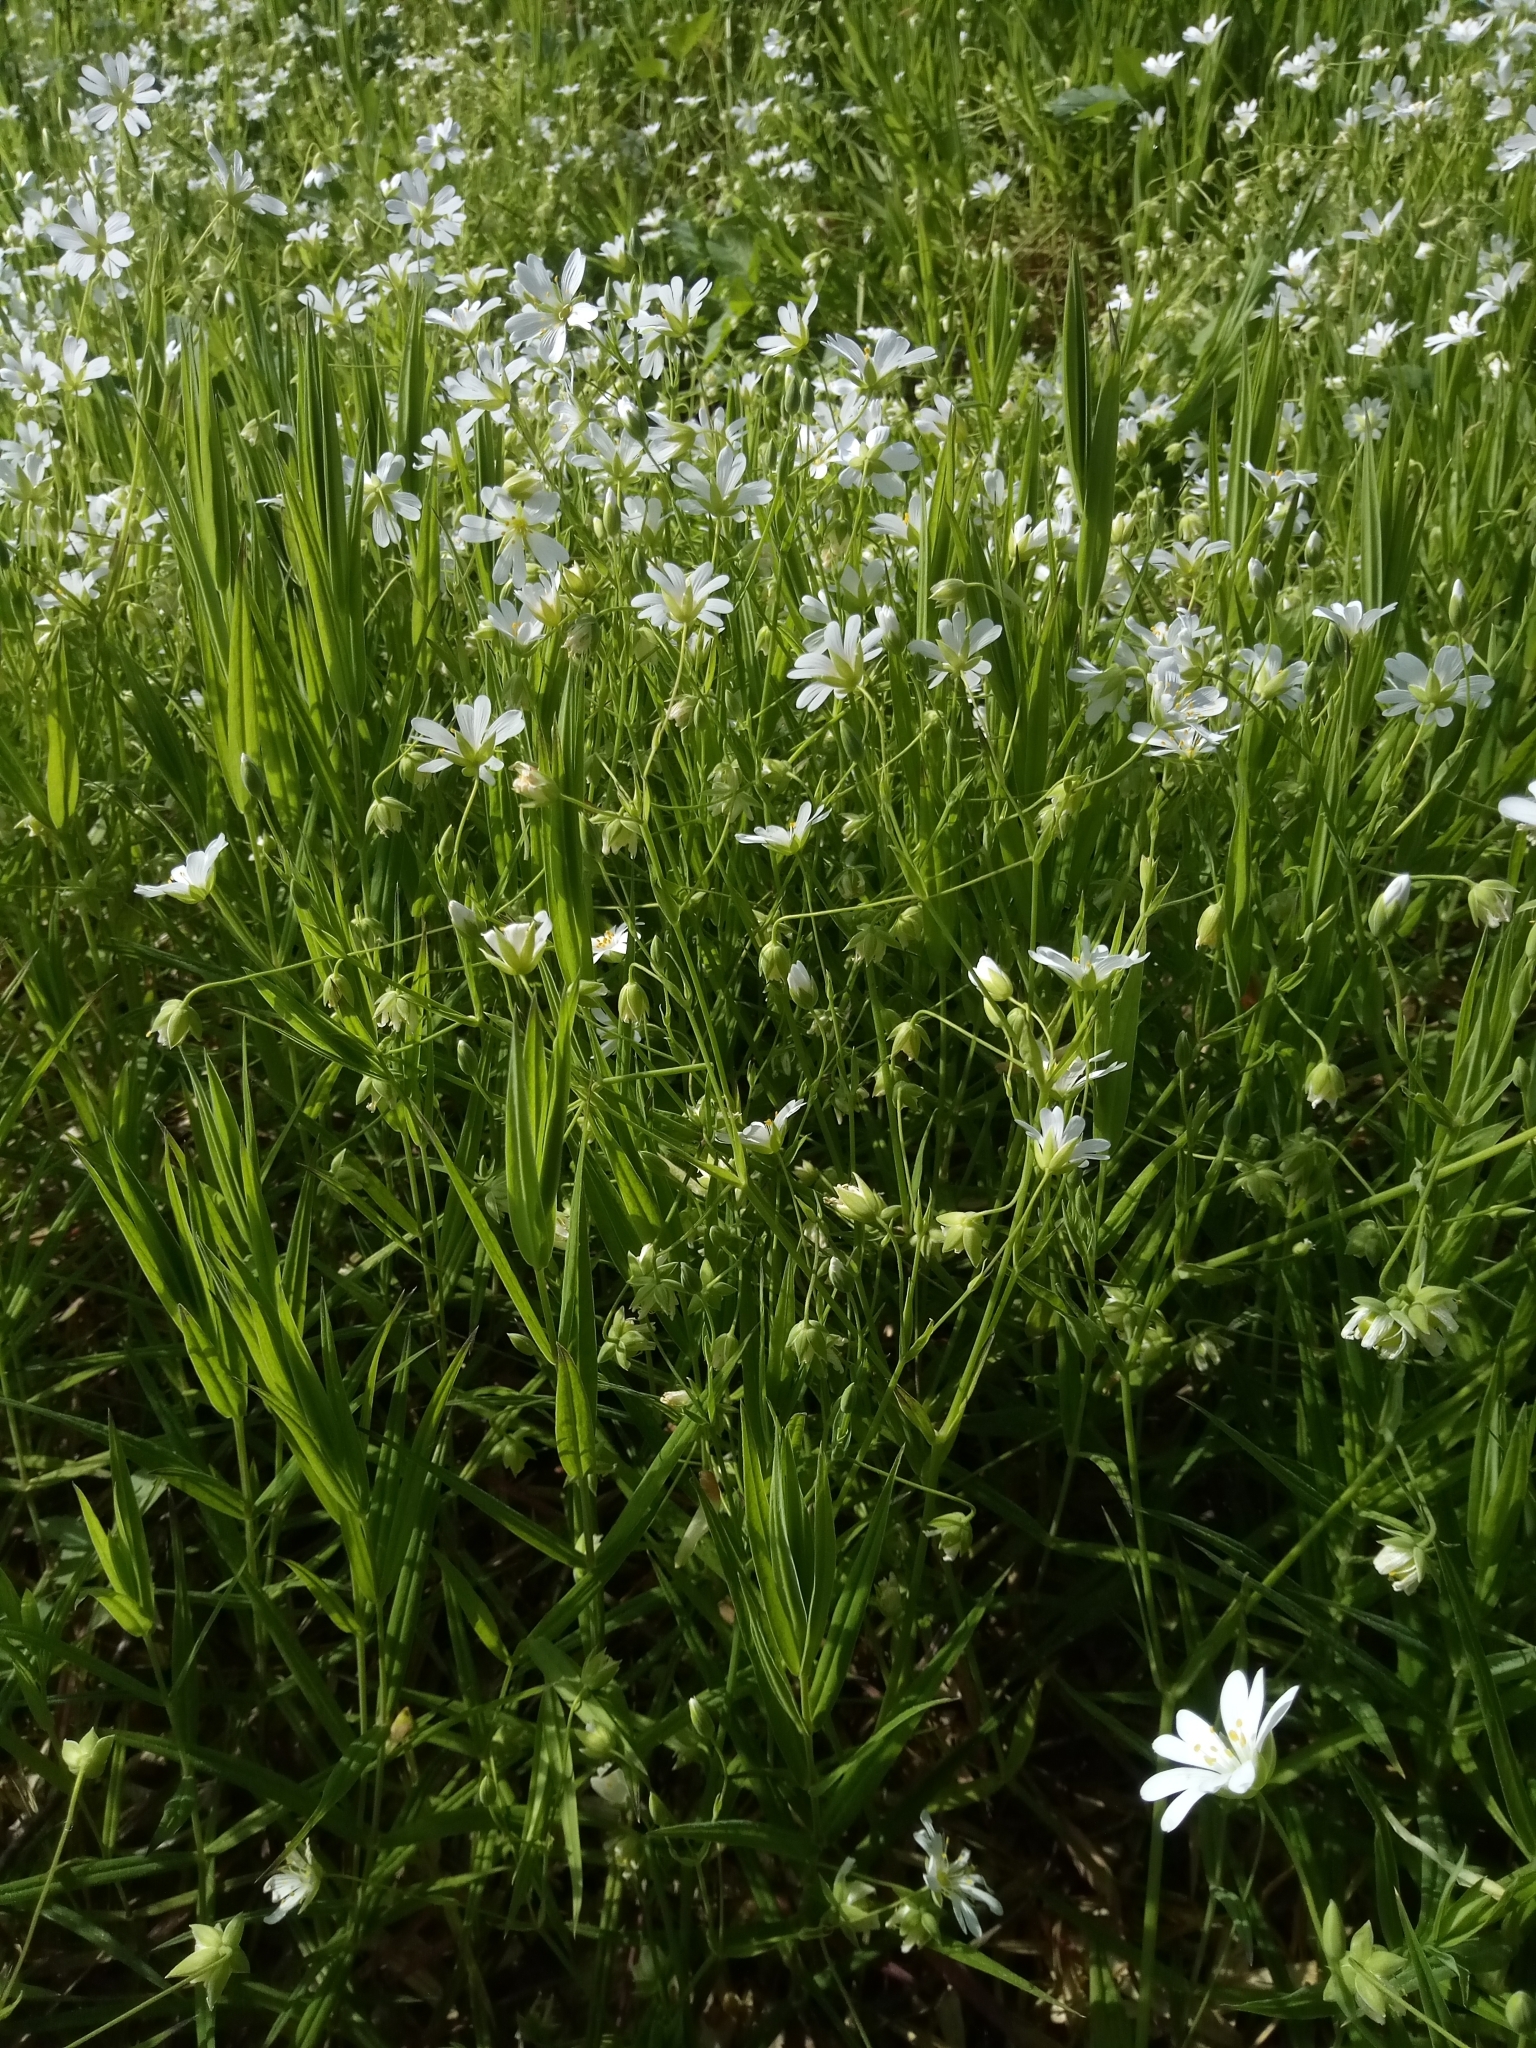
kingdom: Plantae
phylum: Tracheophyta
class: Magnoliopsida
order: Caryophyllales
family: Caryophyllaceae
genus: Rabelera
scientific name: Rabelera holostea
